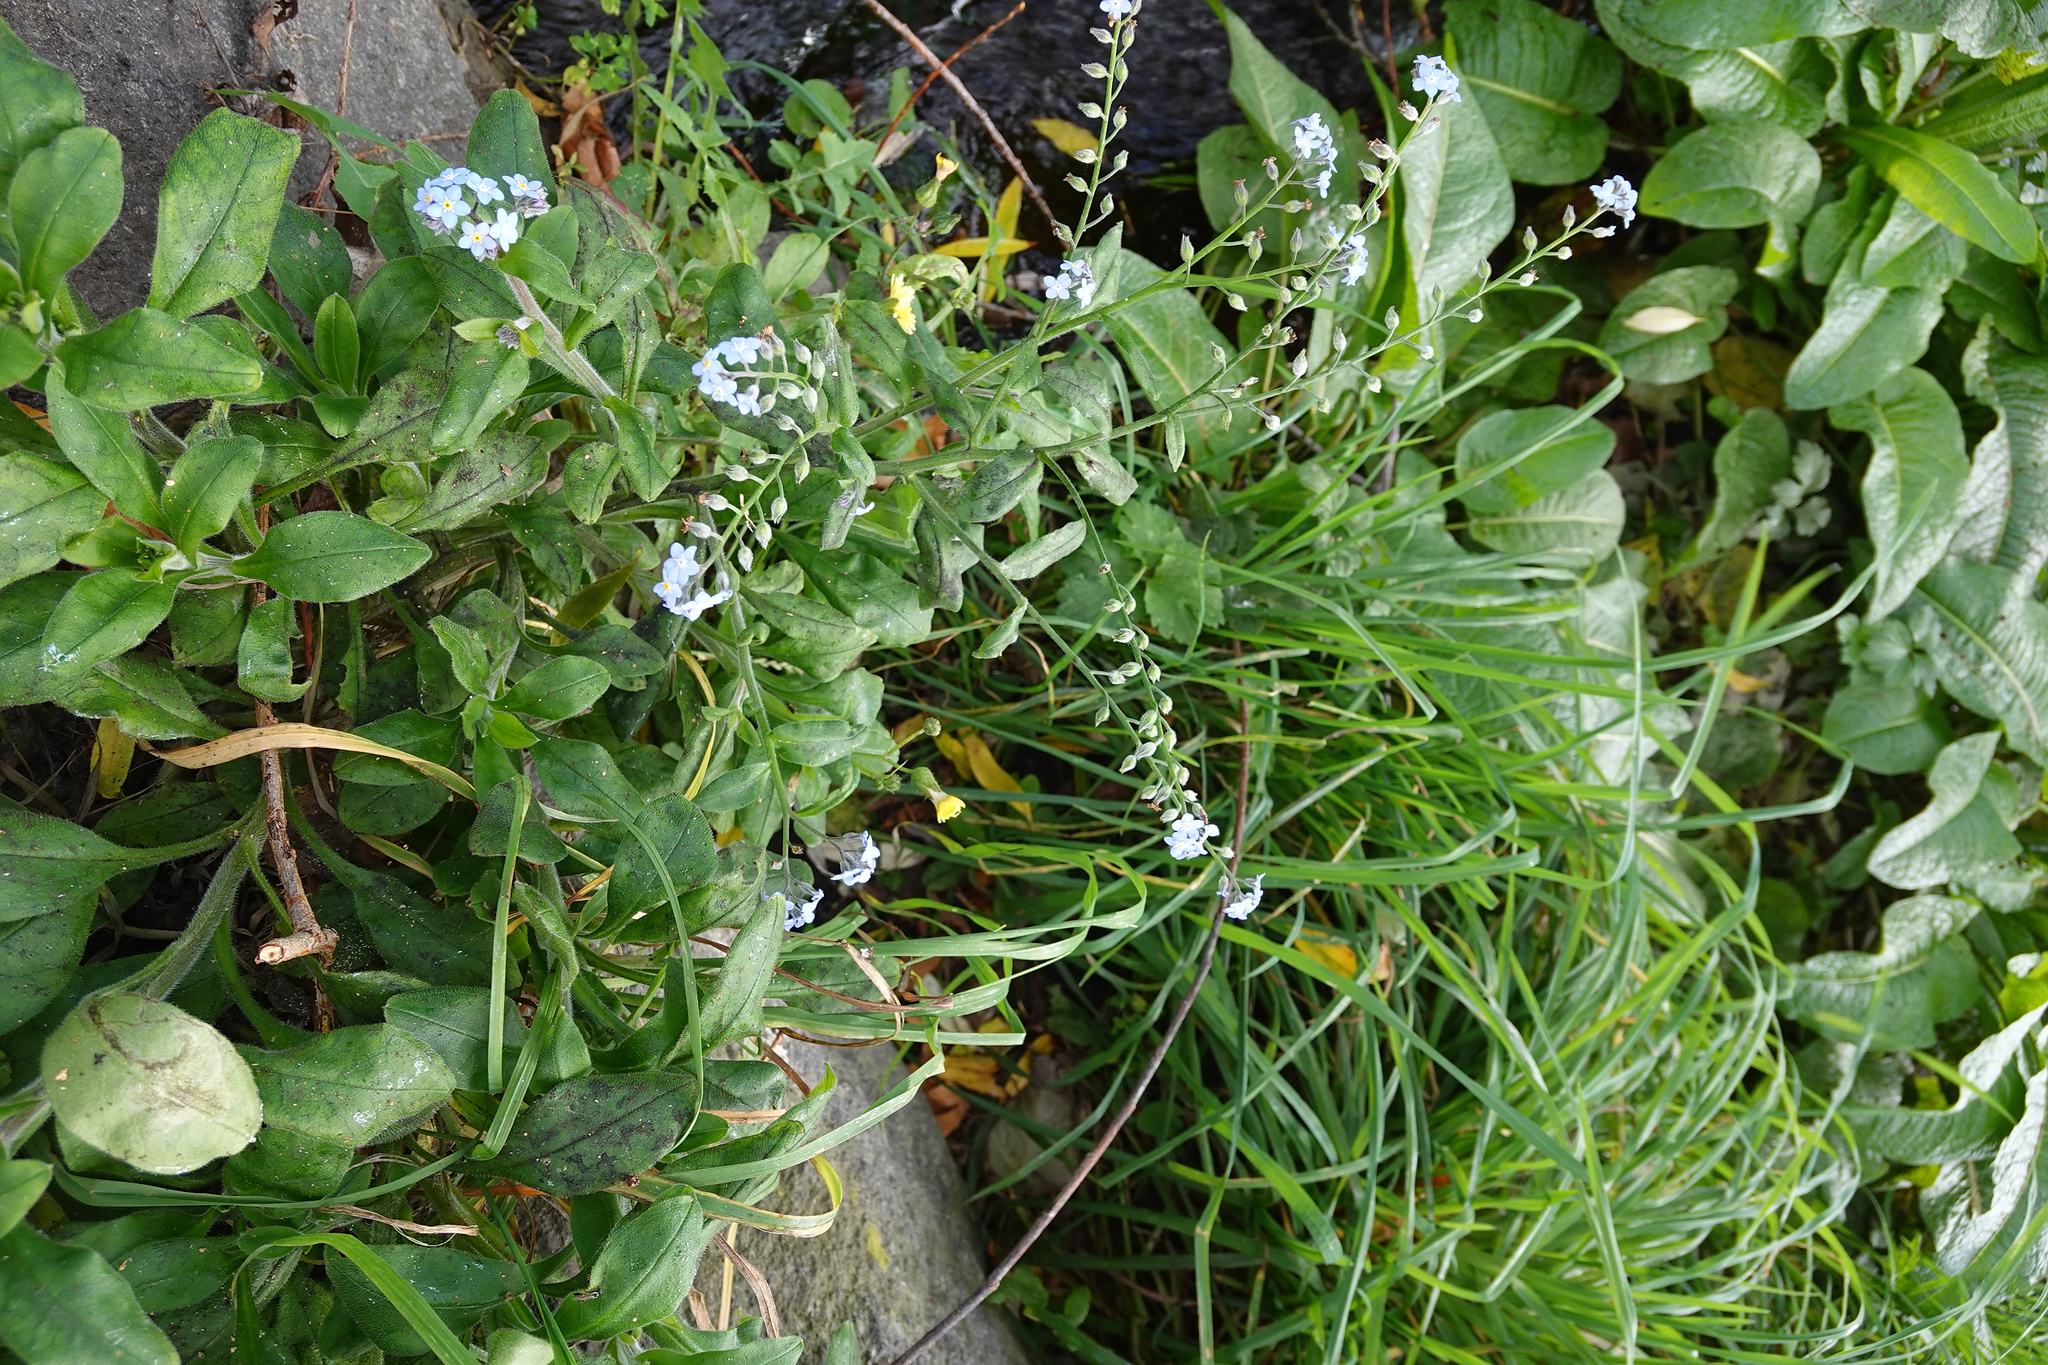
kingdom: Plantae
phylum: Tracheophyta
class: Magnoliopsida
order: Boraginales
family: Boraginaceae
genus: Myosotis
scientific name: Myosotis sylvatica
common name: Wood forget-me-not
